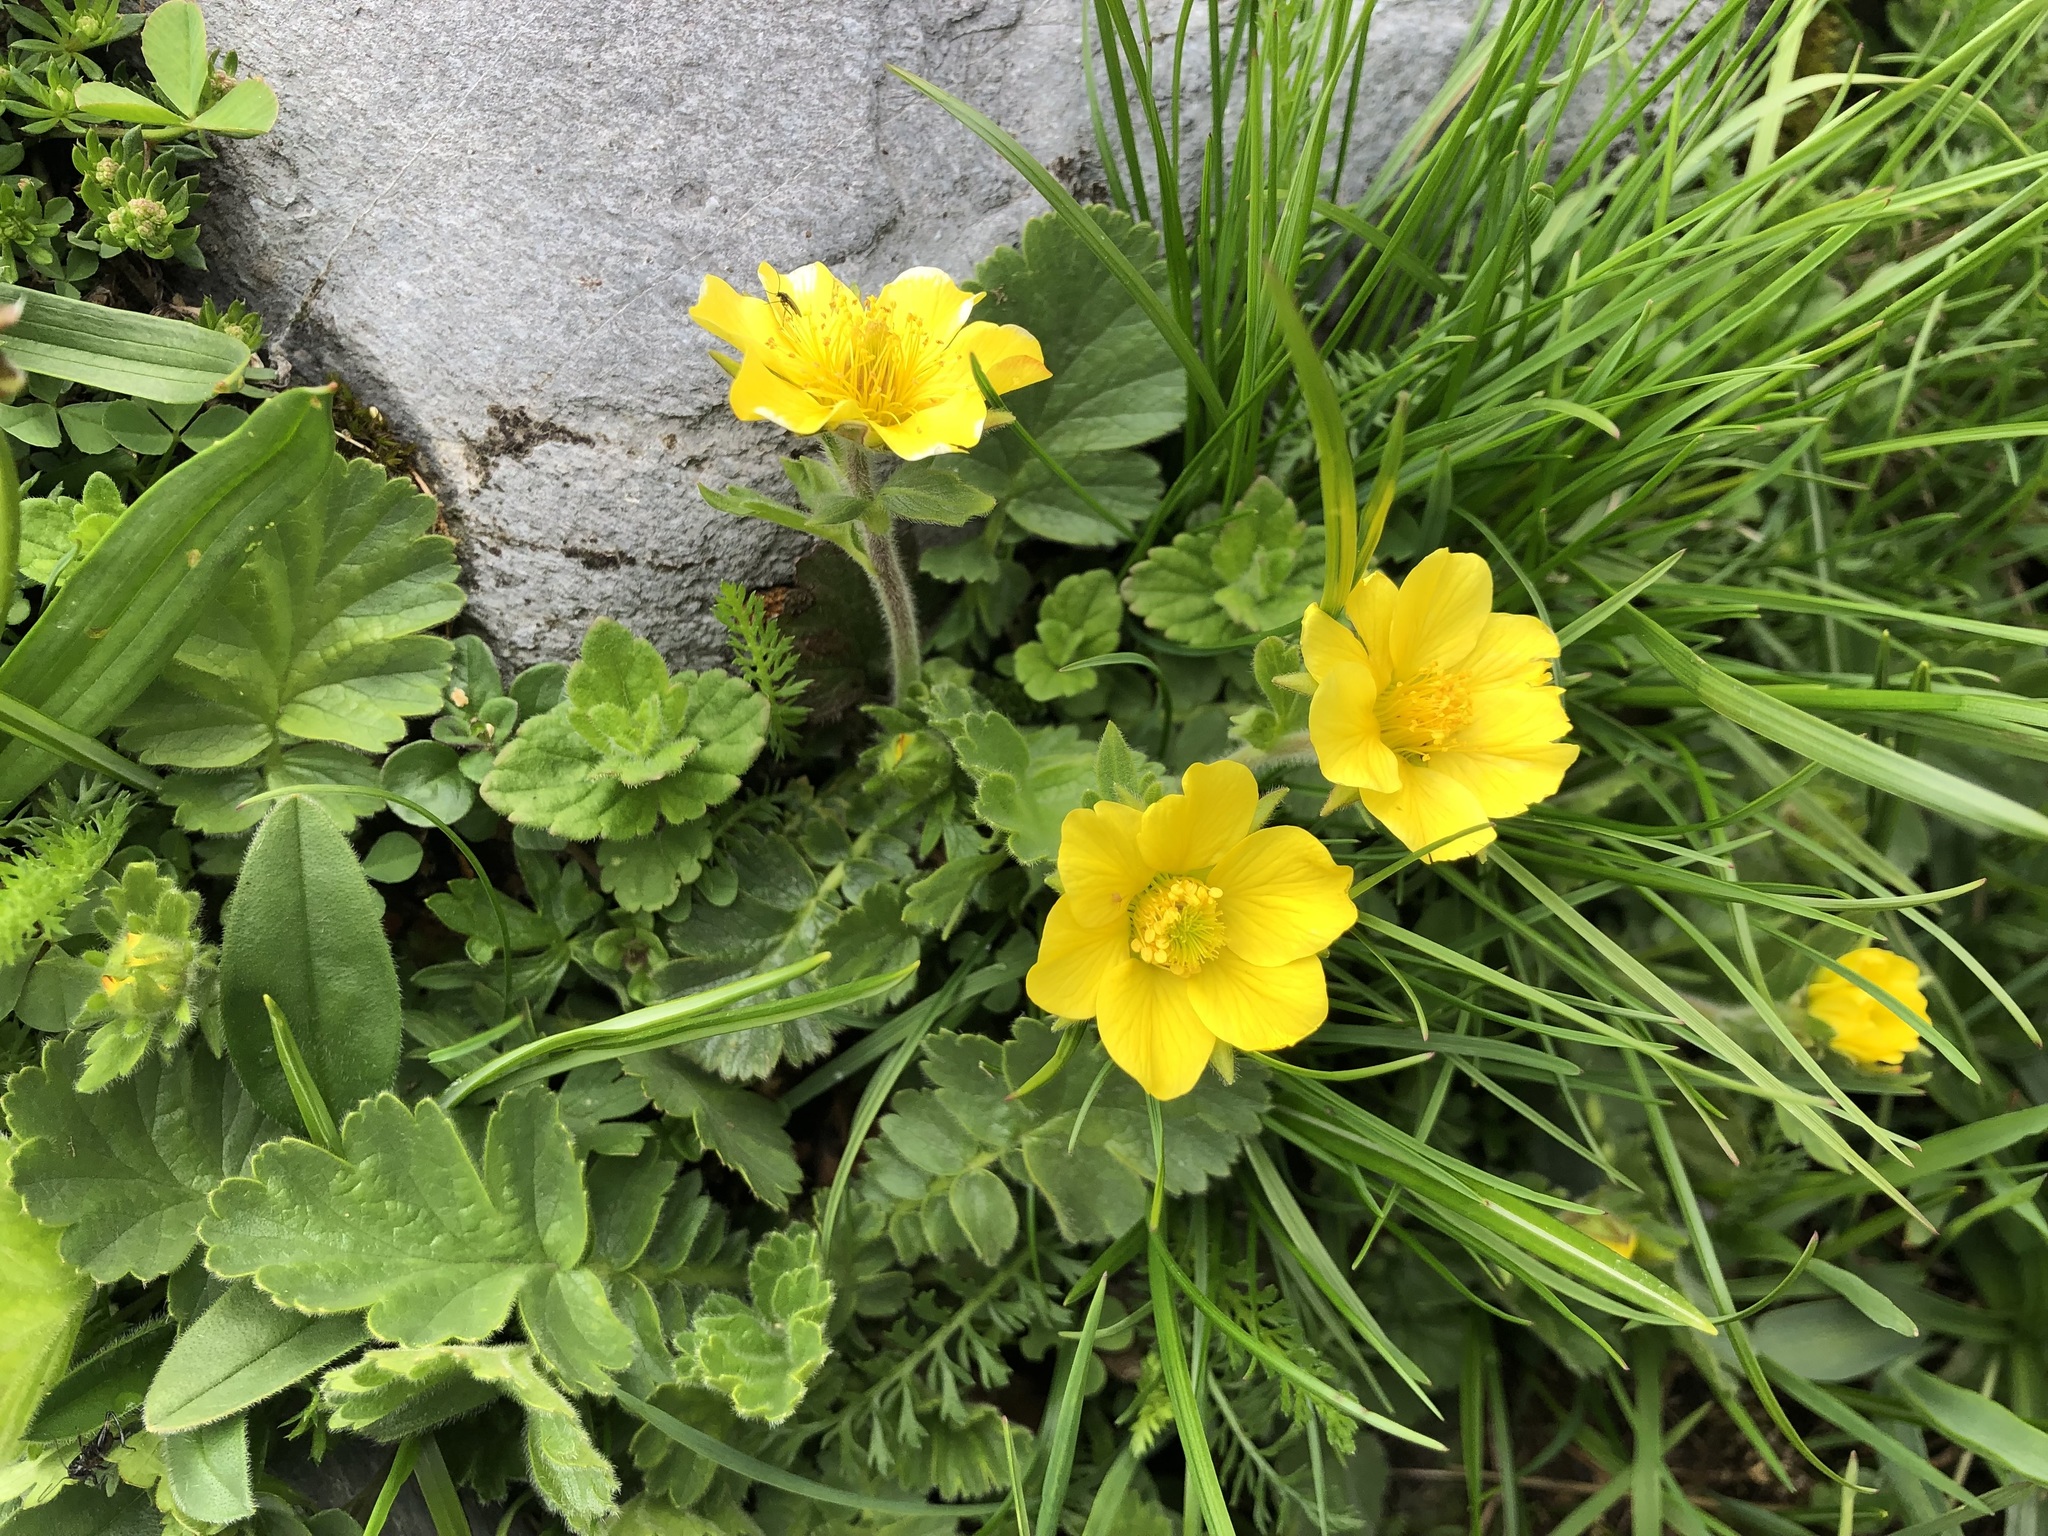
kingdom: Plantae
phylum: Tracheophyta
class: Magnoliopsida
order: Rosales
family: Rosaceae
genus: Geum
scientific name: Geum montanum
